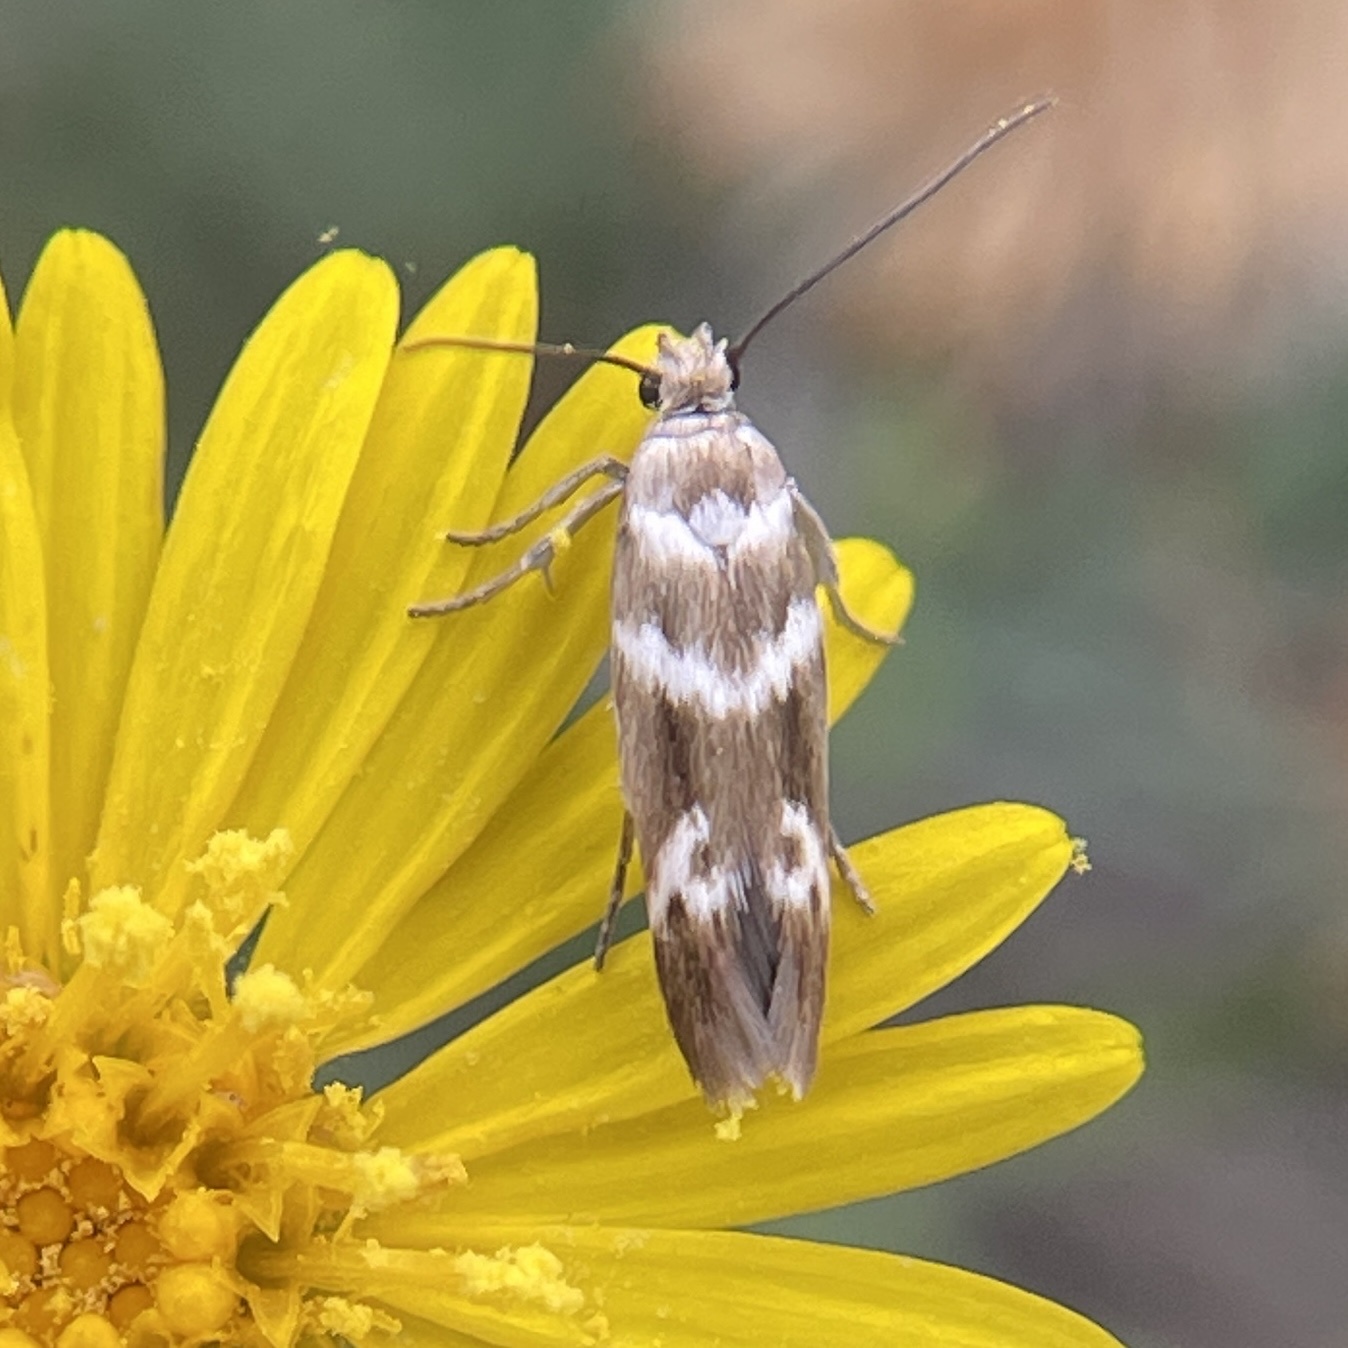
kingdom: Animalia
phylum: Arthropoda
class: Insecta
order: Lepidoptera
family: Scythrididae
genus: Scythris
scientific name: Scythris trivinctella
